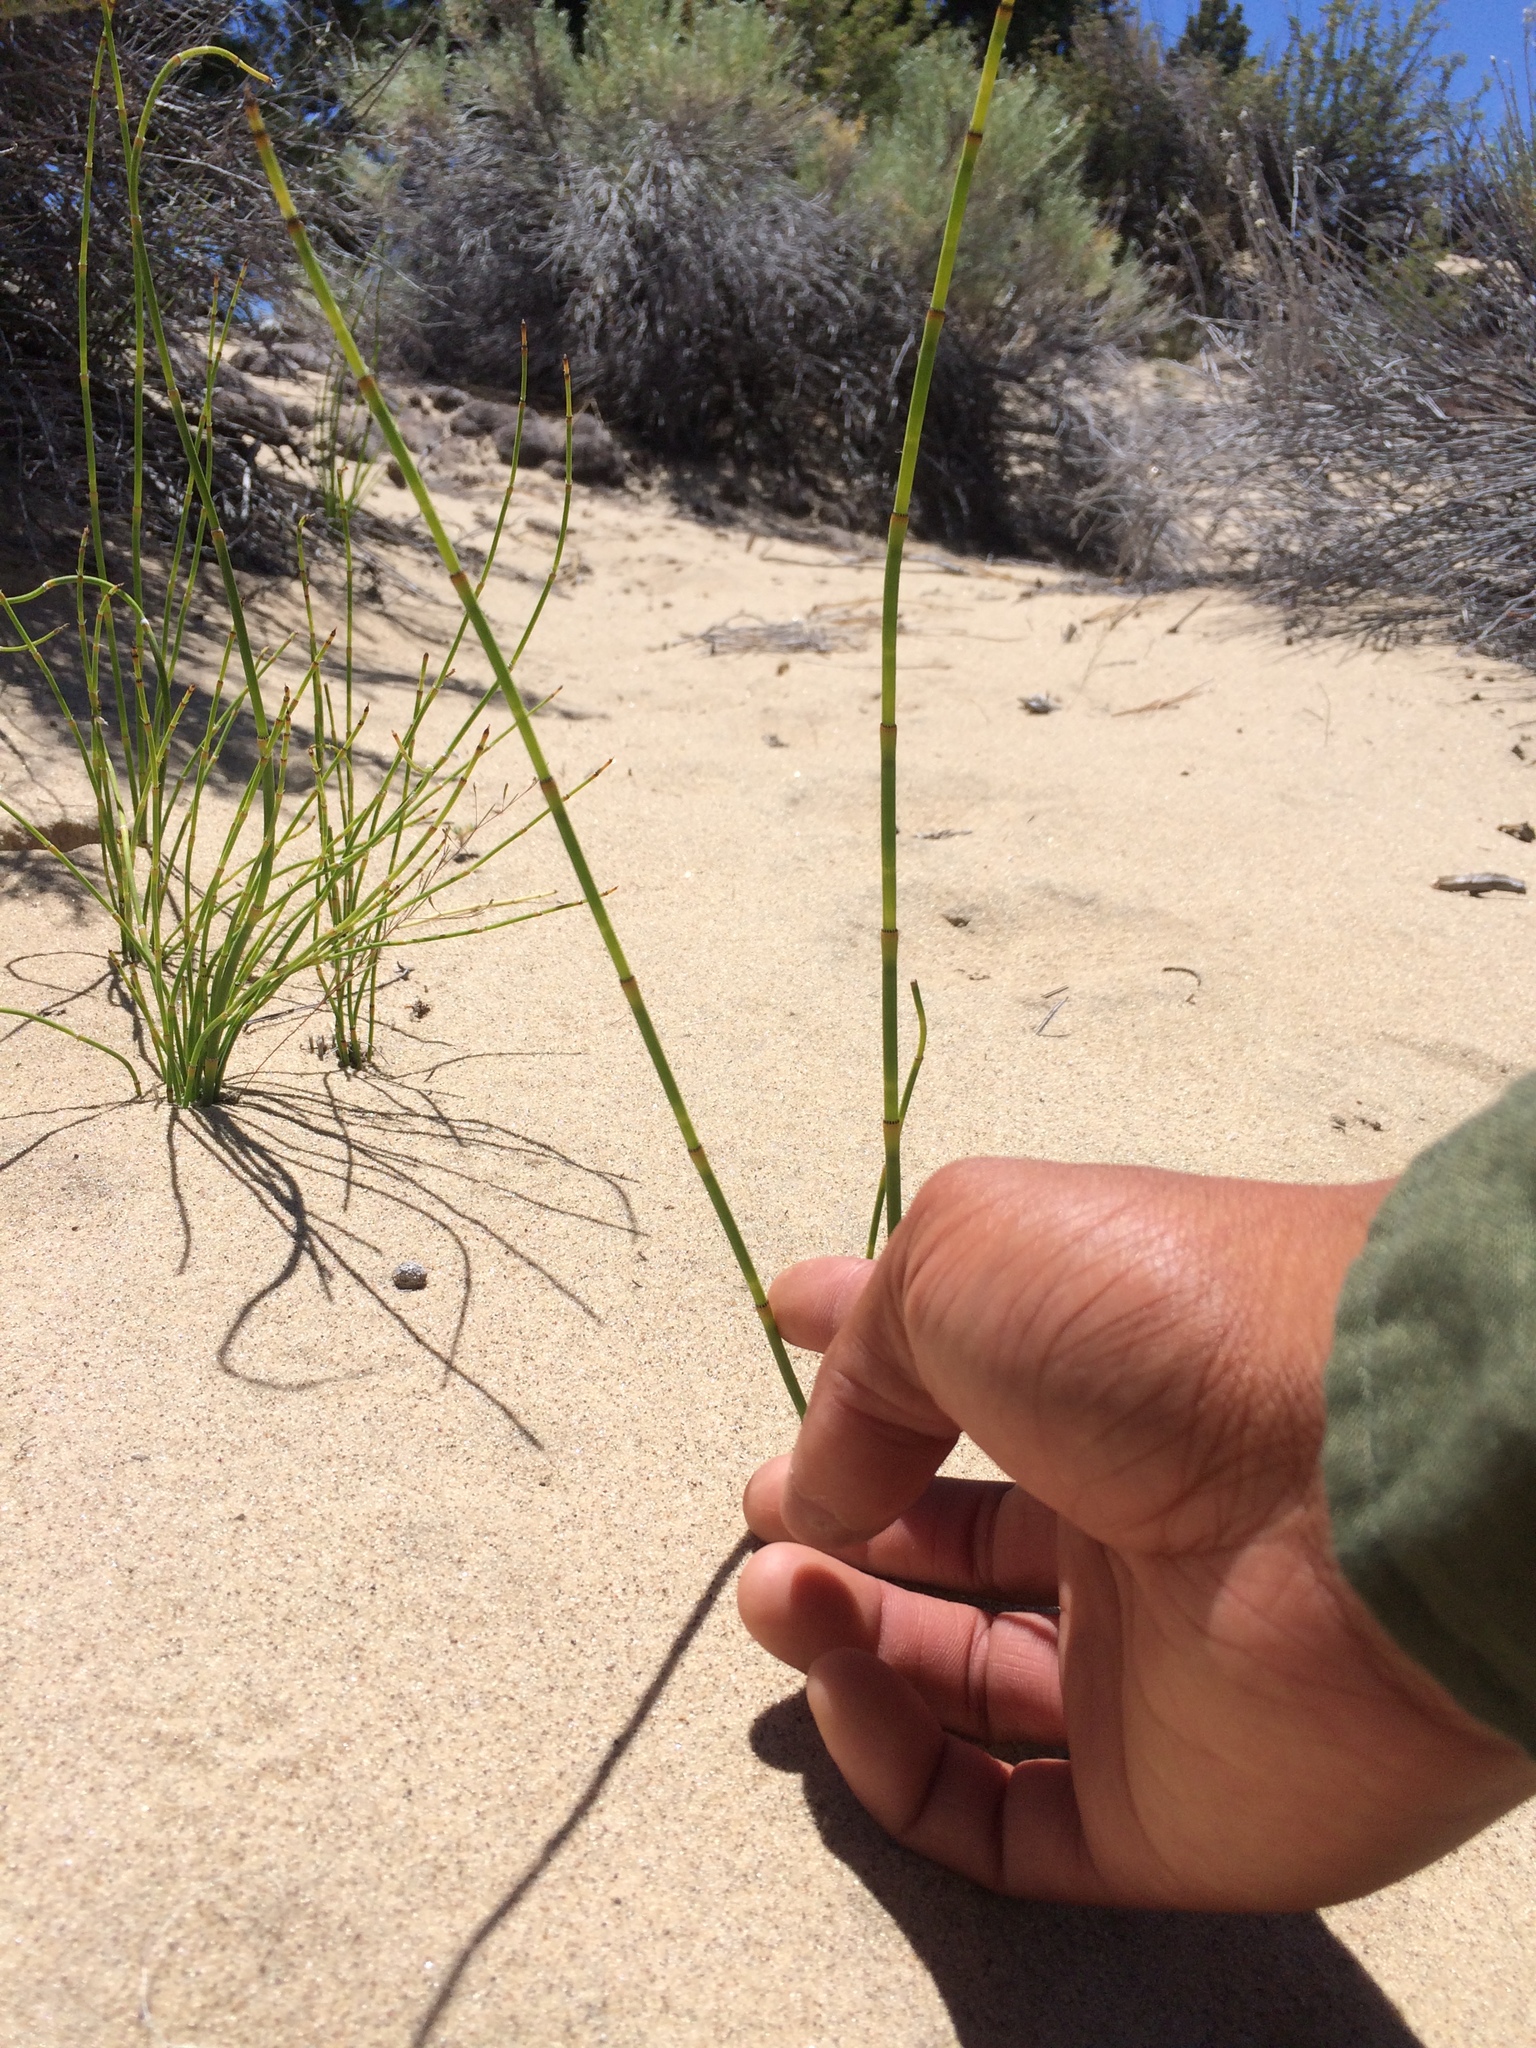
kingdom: Plantae
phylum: Tracheophyta
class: Polypodiopsida
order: Equisetales
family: Equisetaceae
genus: Equisetum
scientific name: Equisetum laevigatum
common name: Smooth scouring-rush
